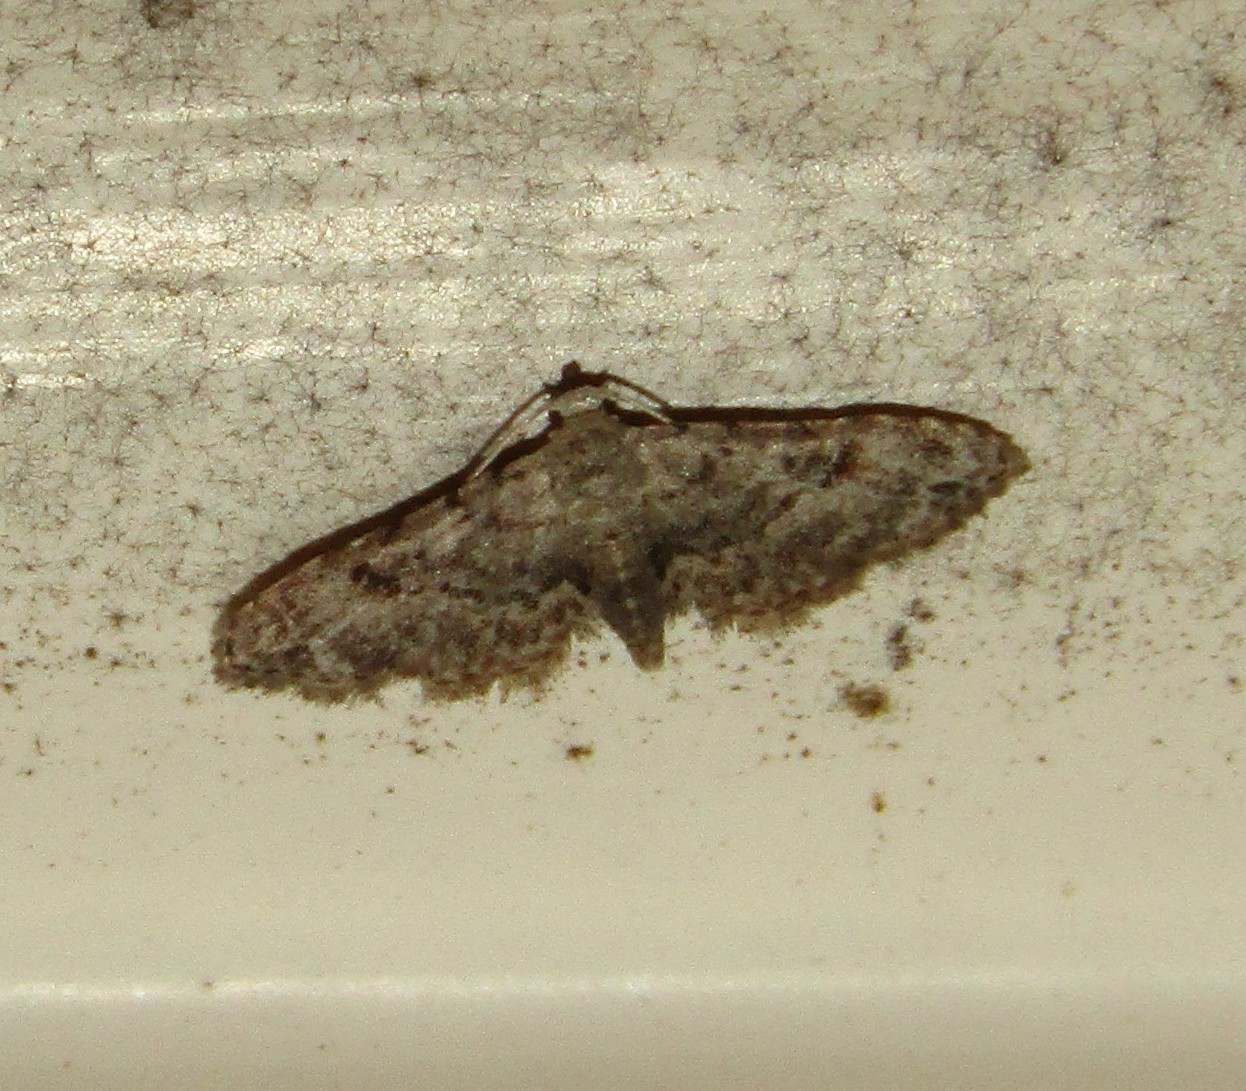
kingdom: Animalia
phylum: Arthropoda
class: Insecta
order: Lepidoptera
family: Erebidae
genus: Sigela
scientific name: Sigela brauneata
